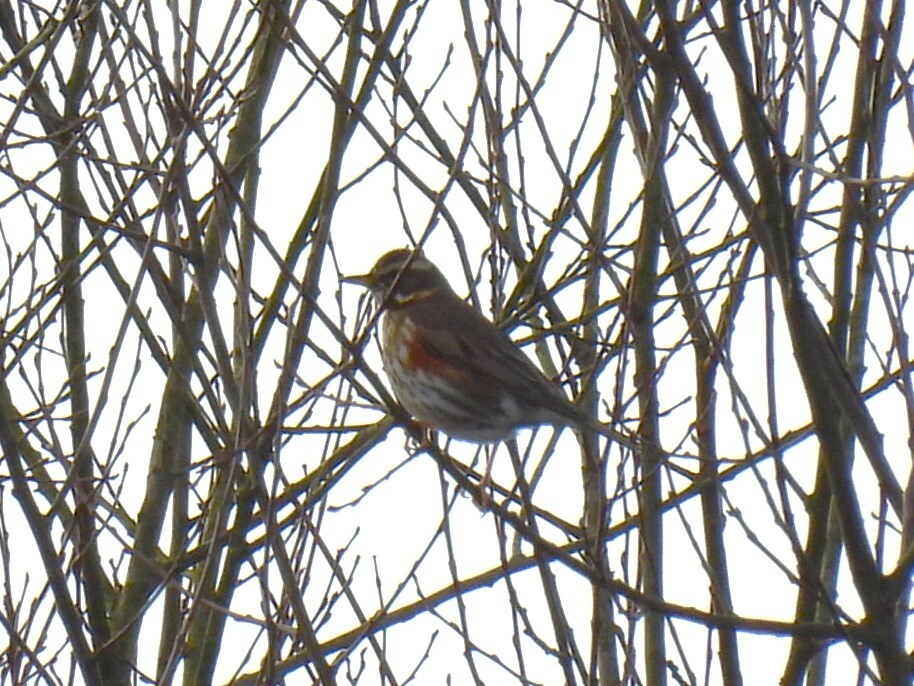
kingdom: Animalia
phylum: Chordata
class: Aves
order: Passeriformes
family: Turdidae
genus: Turdus
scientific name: Turdus iliacus
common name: Redwing
